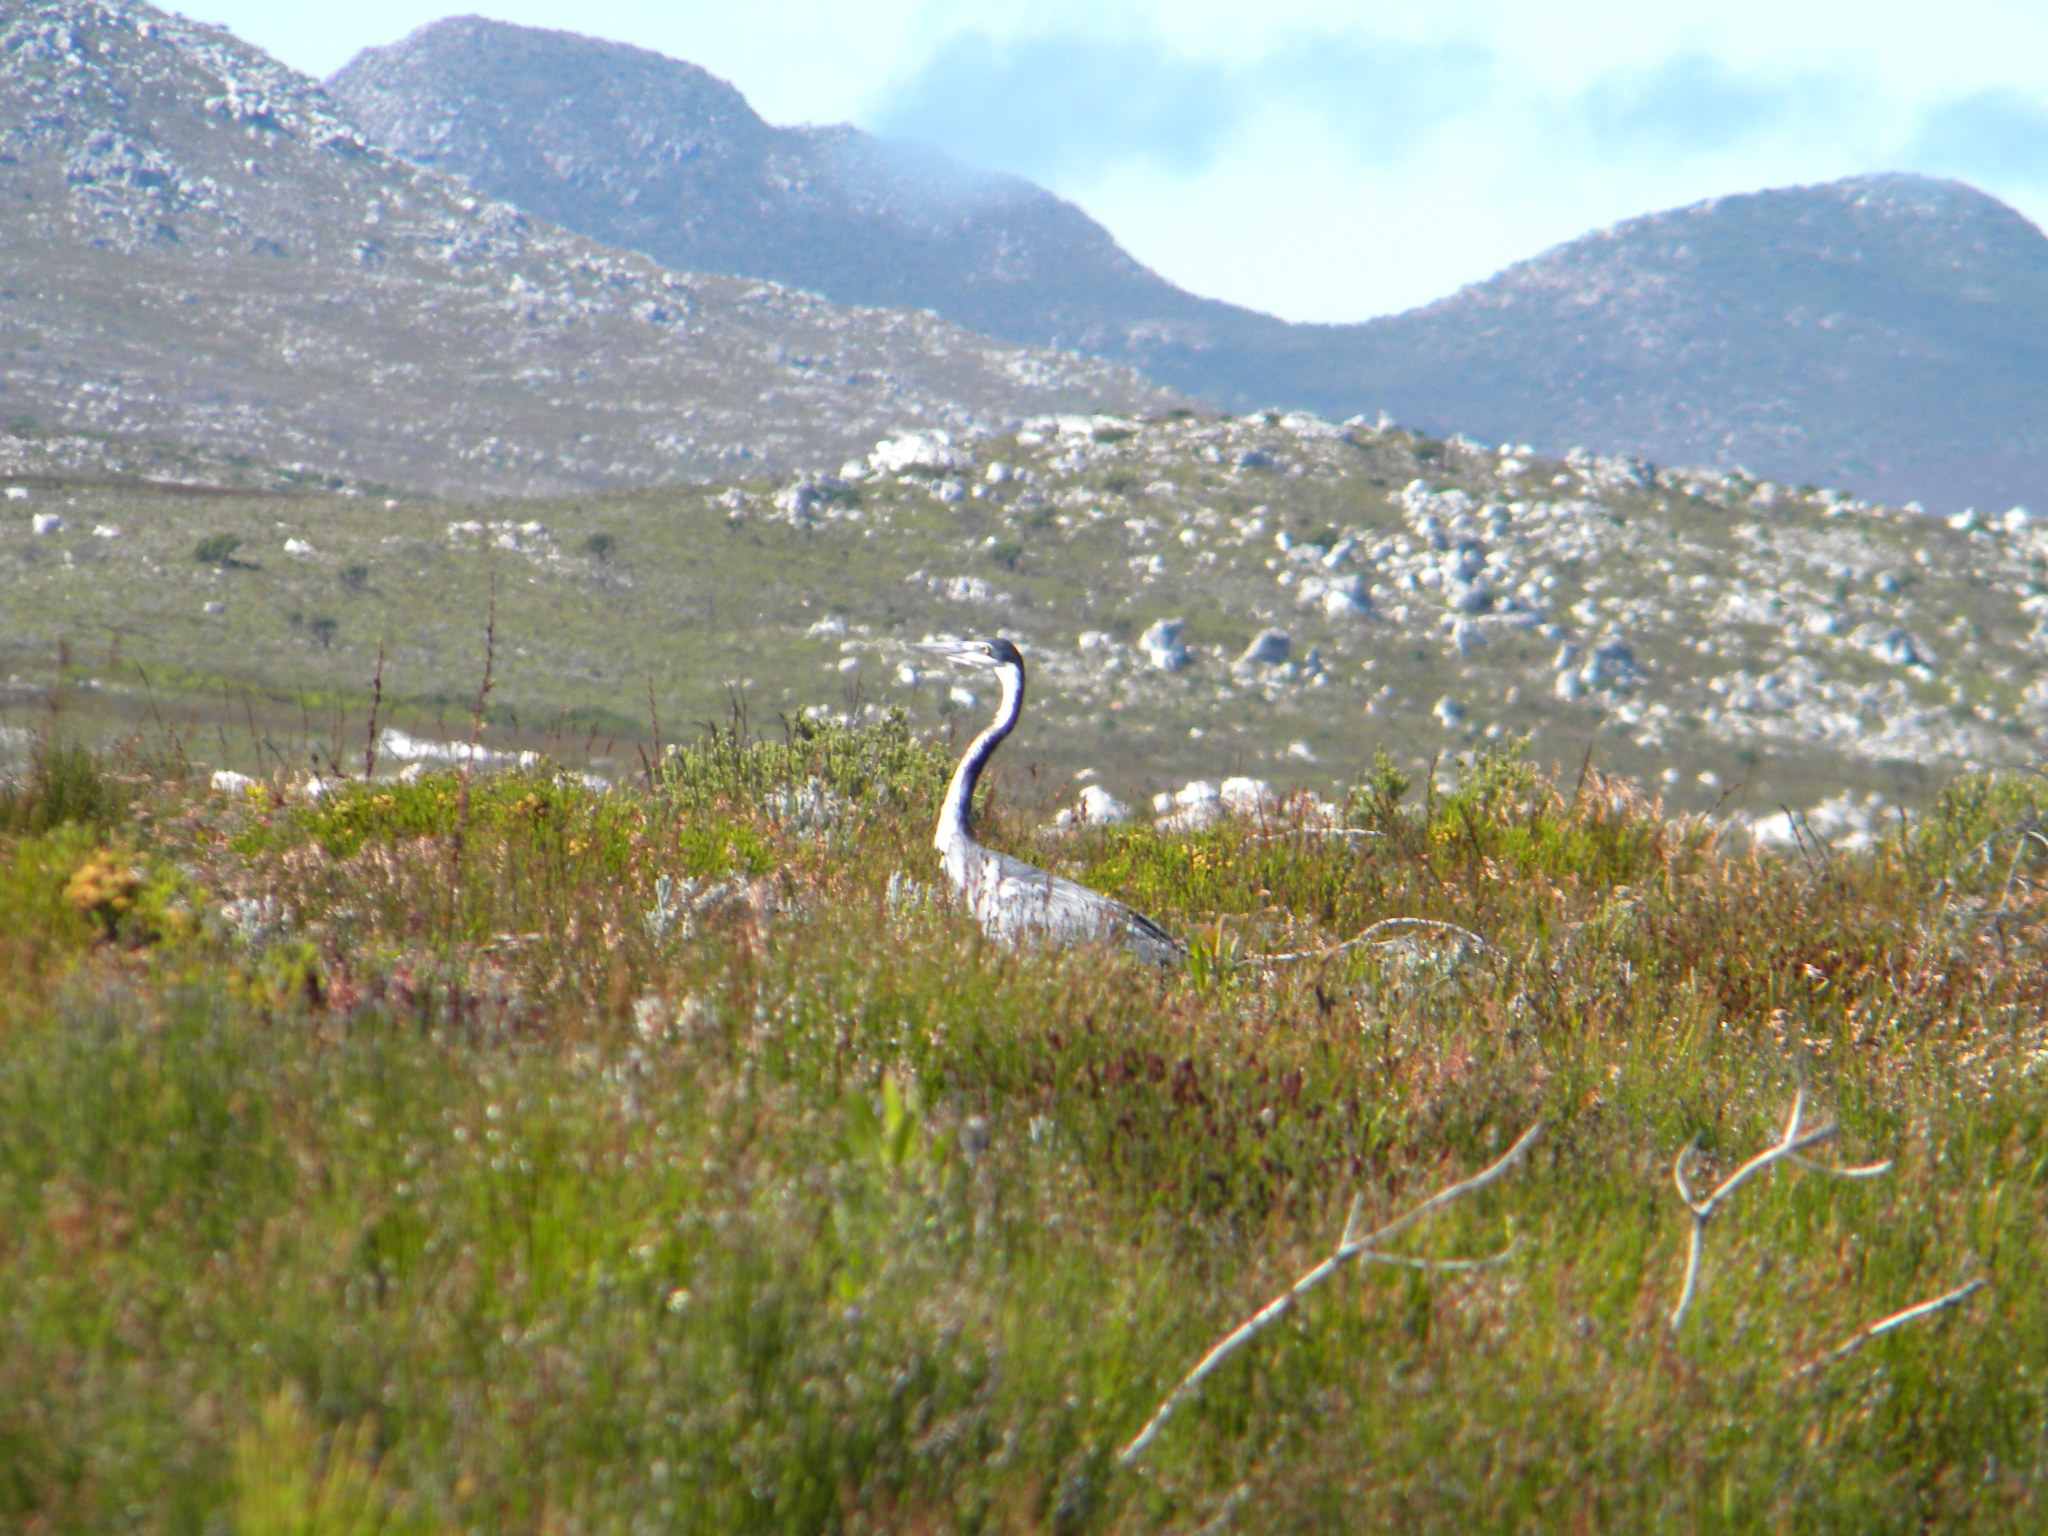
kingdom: Animalia
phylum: Chordata
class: Aves
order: Pelecaniformes
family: Ardeidae
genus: Ardea
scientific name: Ardea melanocephala
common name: Black-headed heron
